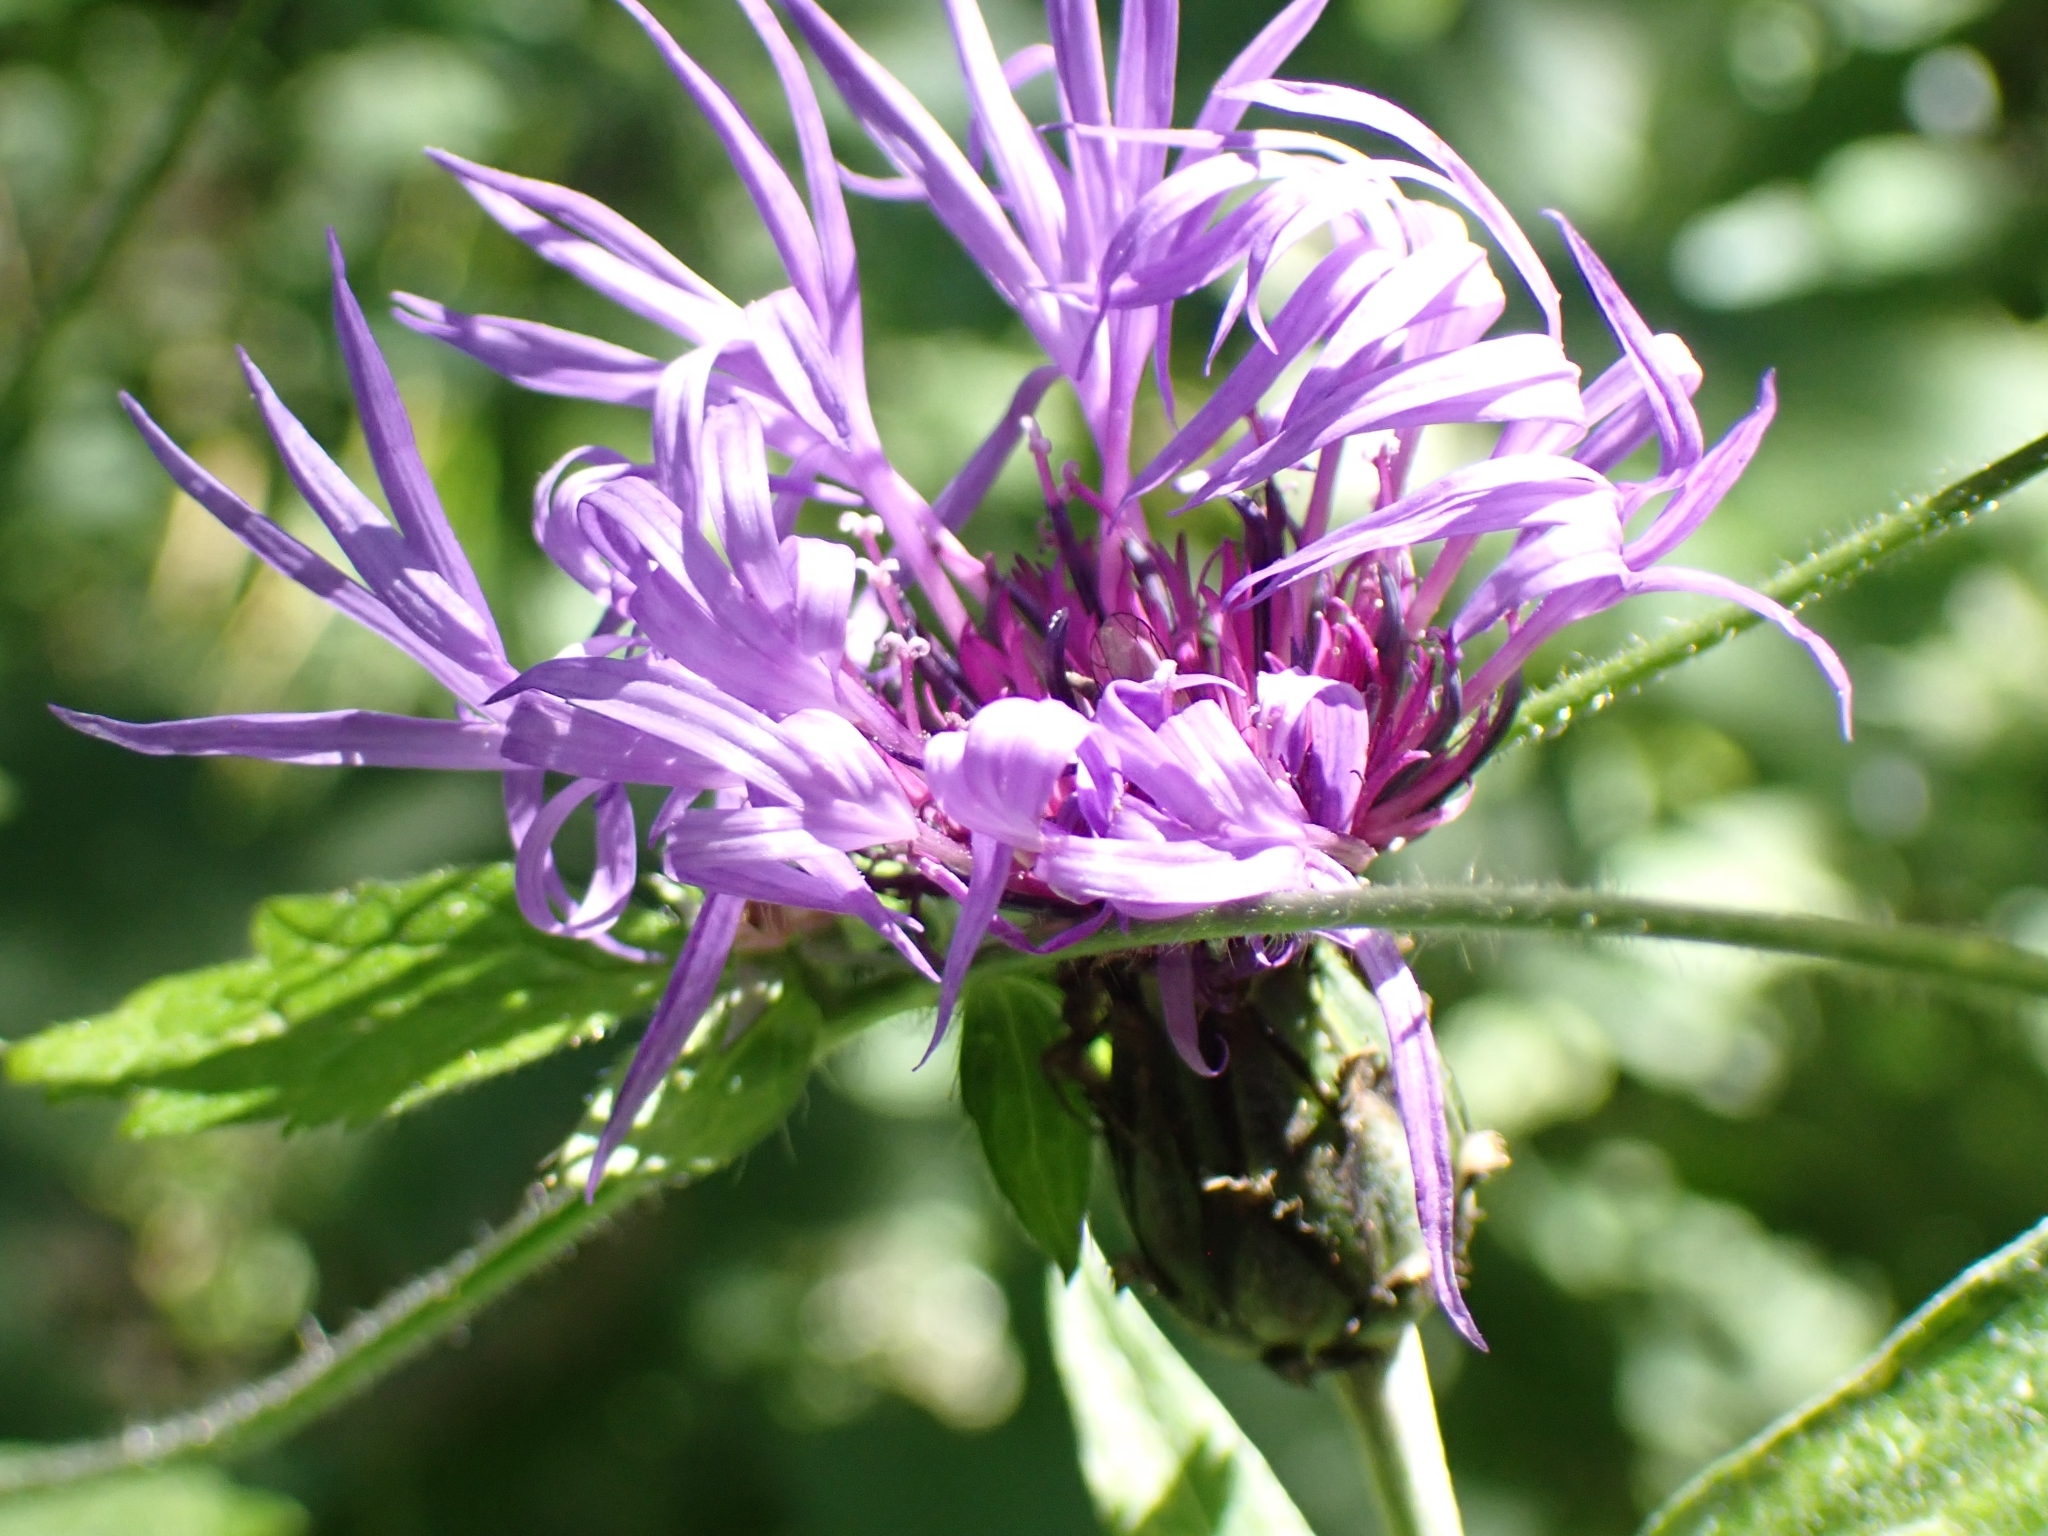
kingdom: Plantae
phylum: Tracheophyta
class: Magnoliopsida
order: Asterales
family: Asteraceae
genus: Centaurea
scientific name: Centaurea montana
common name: Perennial cornflower
